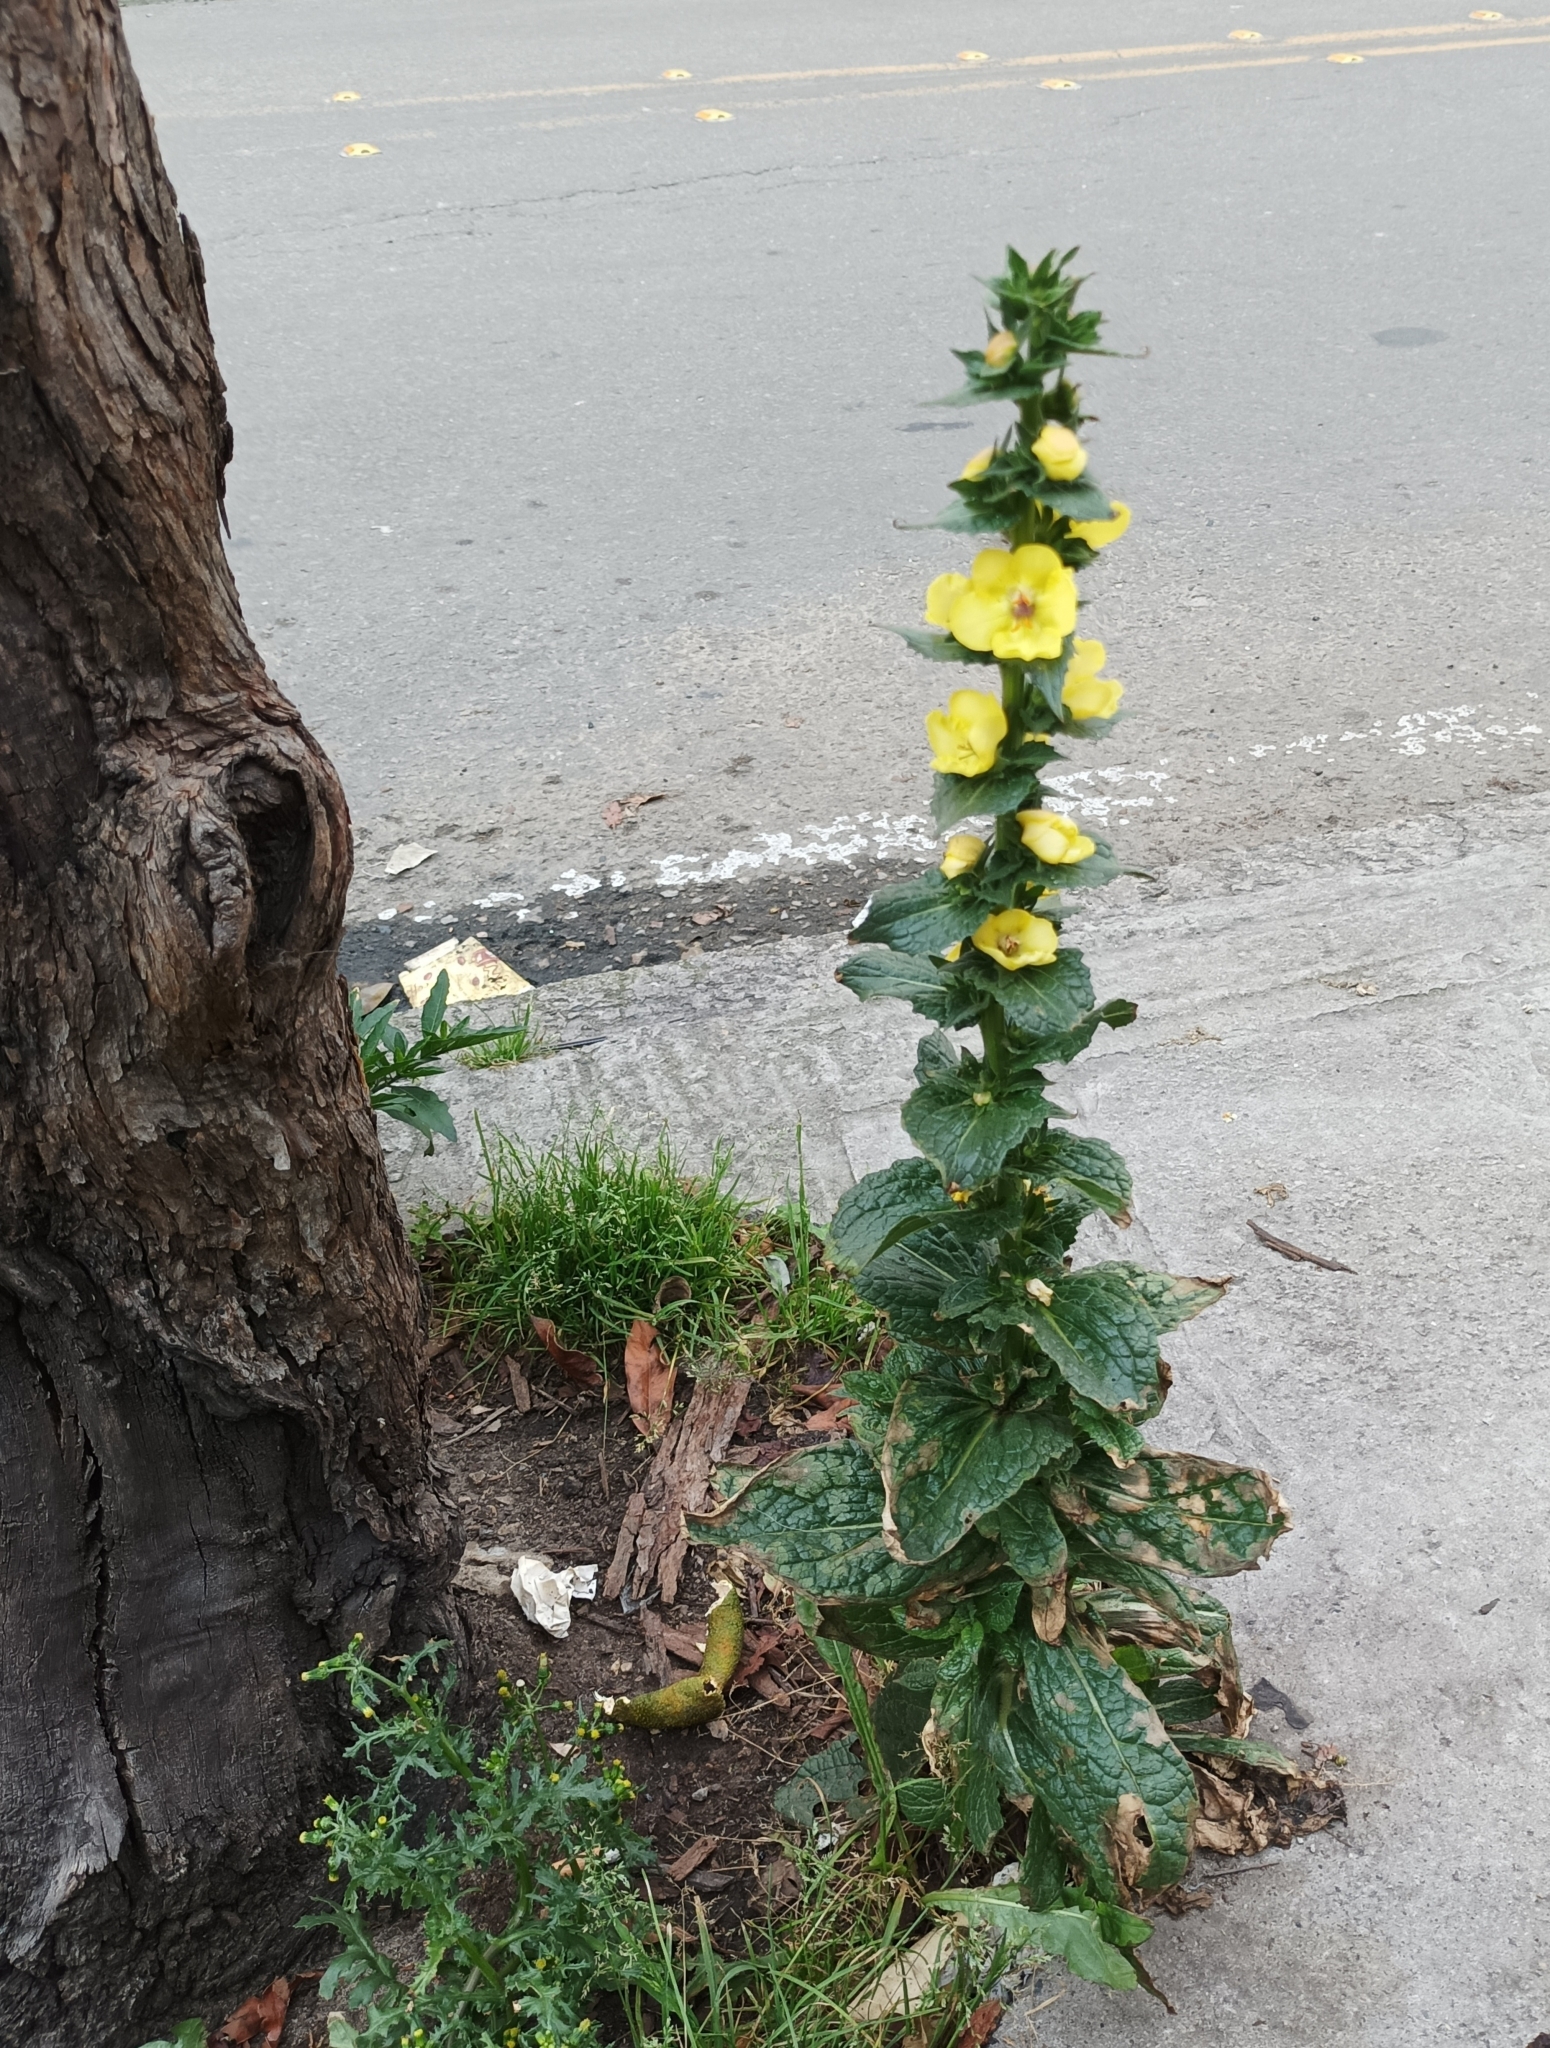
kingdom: Plantae
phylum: Tracheophyta
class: Magnoliopsida
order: Lamiales
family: Scrophulariaceae
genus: Verbascum
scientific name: Verbascum virgatum
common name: Twiggy mullein
